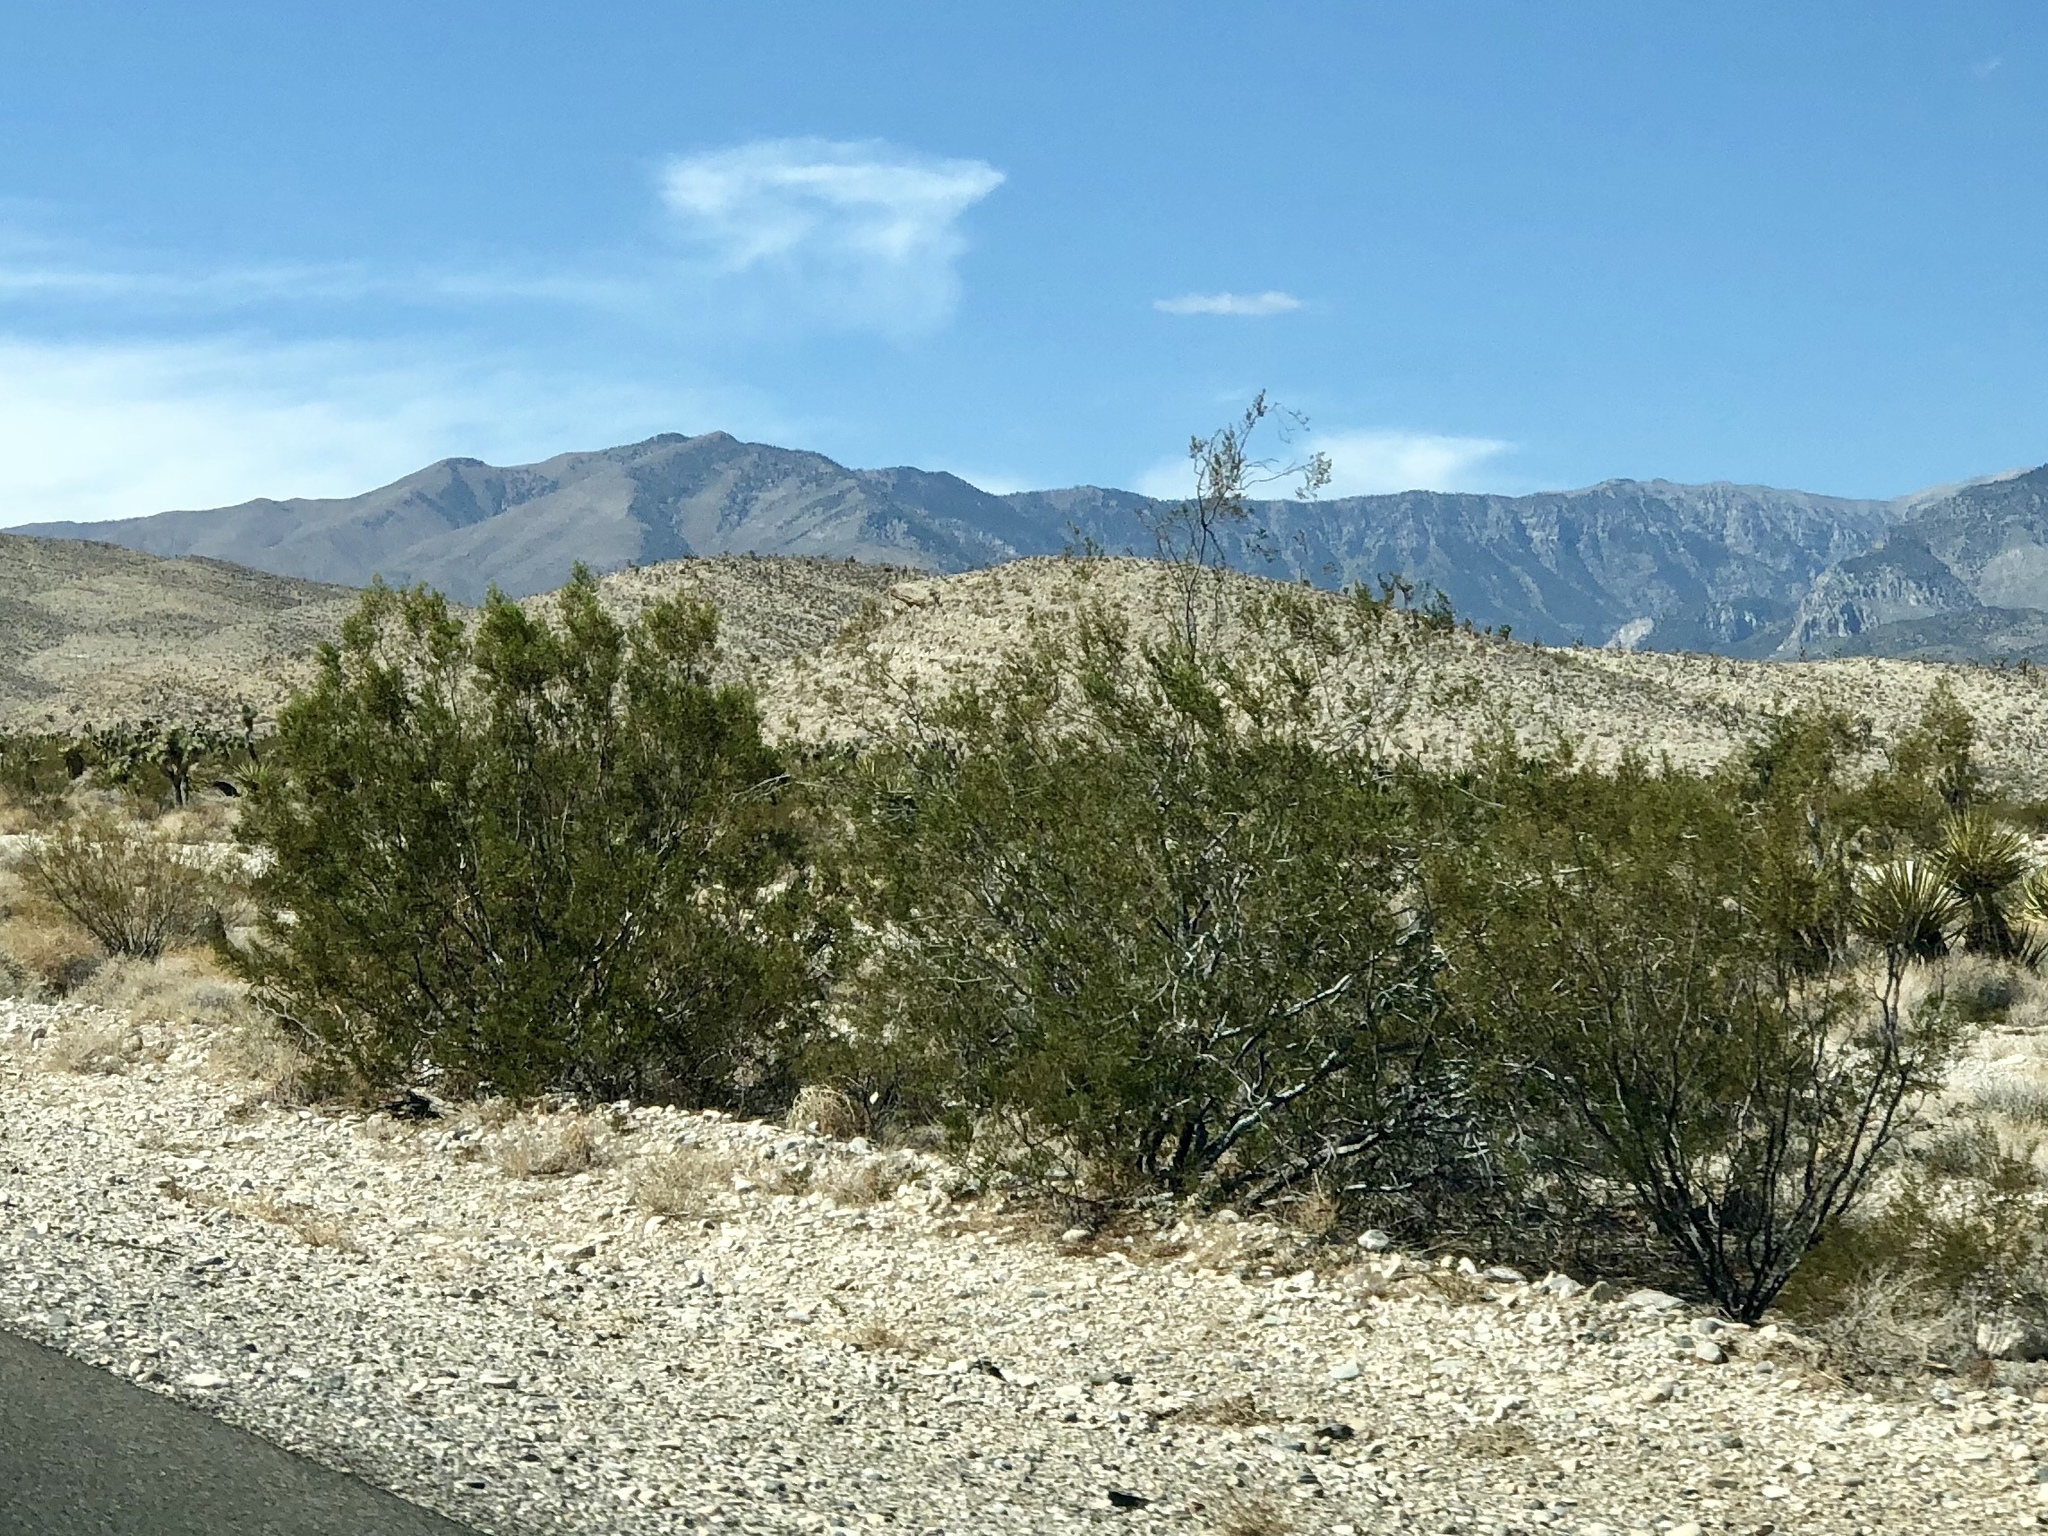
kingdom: Plantae
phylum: Tracheophyta
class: Magnoliopsida
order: Zygophyllales
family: Zygophyllaceae
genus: Larrea
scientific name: Larrea tridentata
